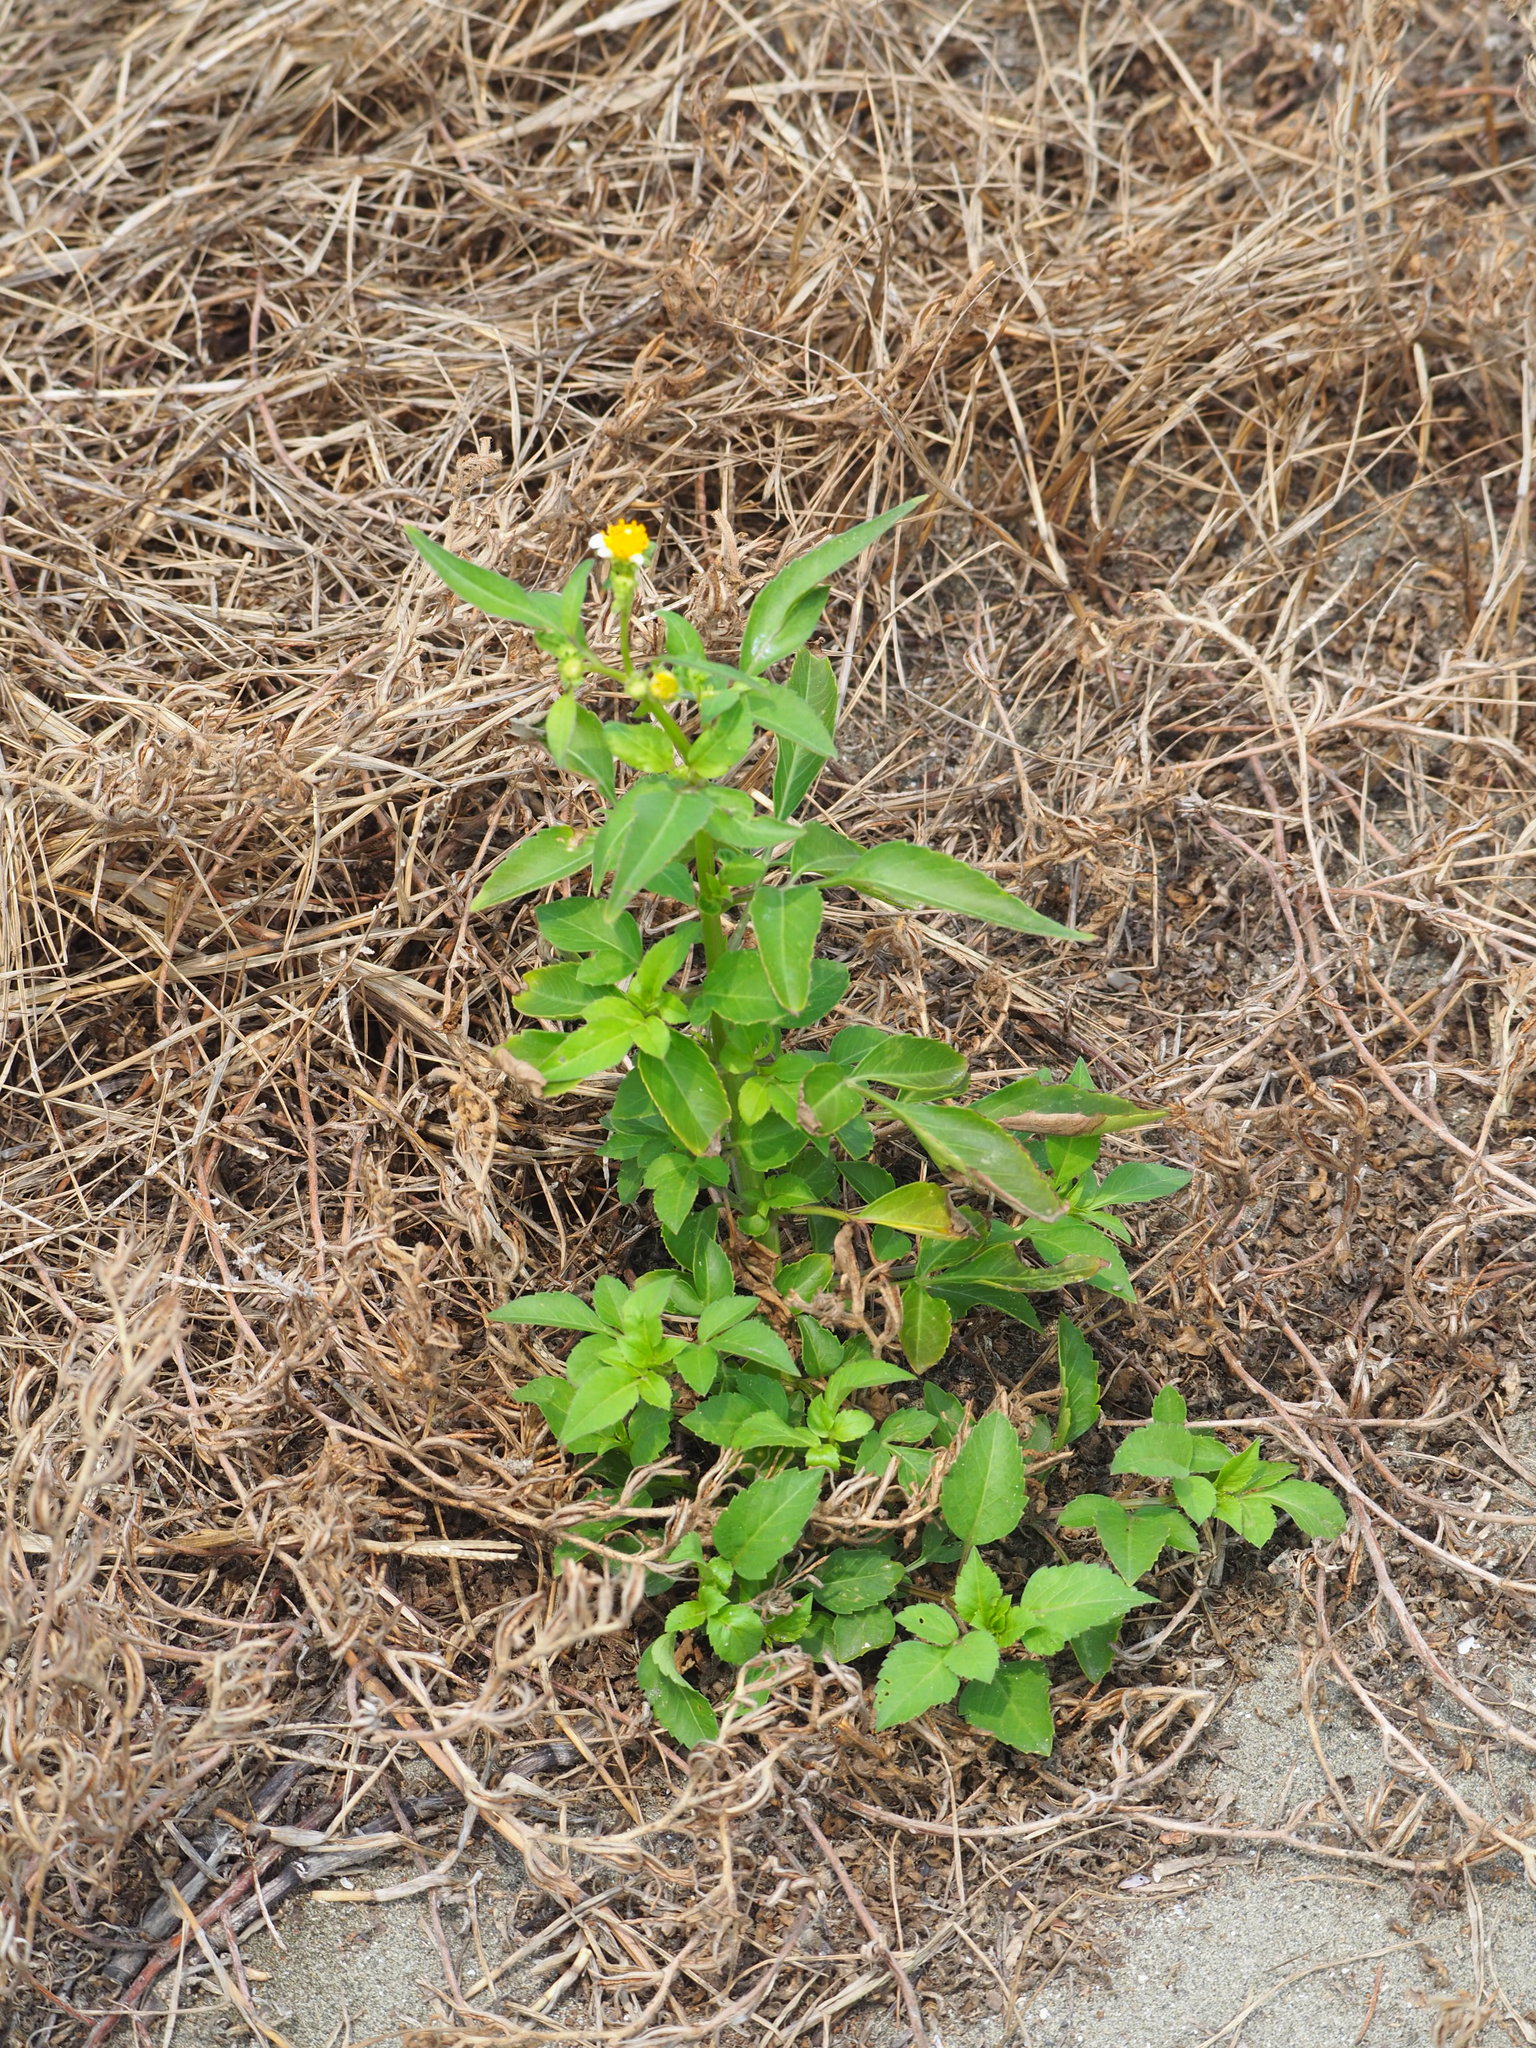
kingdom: Plantae
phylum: Tracheophyta
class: Magnoliopsida
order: Asterales
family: Asteraceae
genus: Bidens
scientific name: Bidens alba
